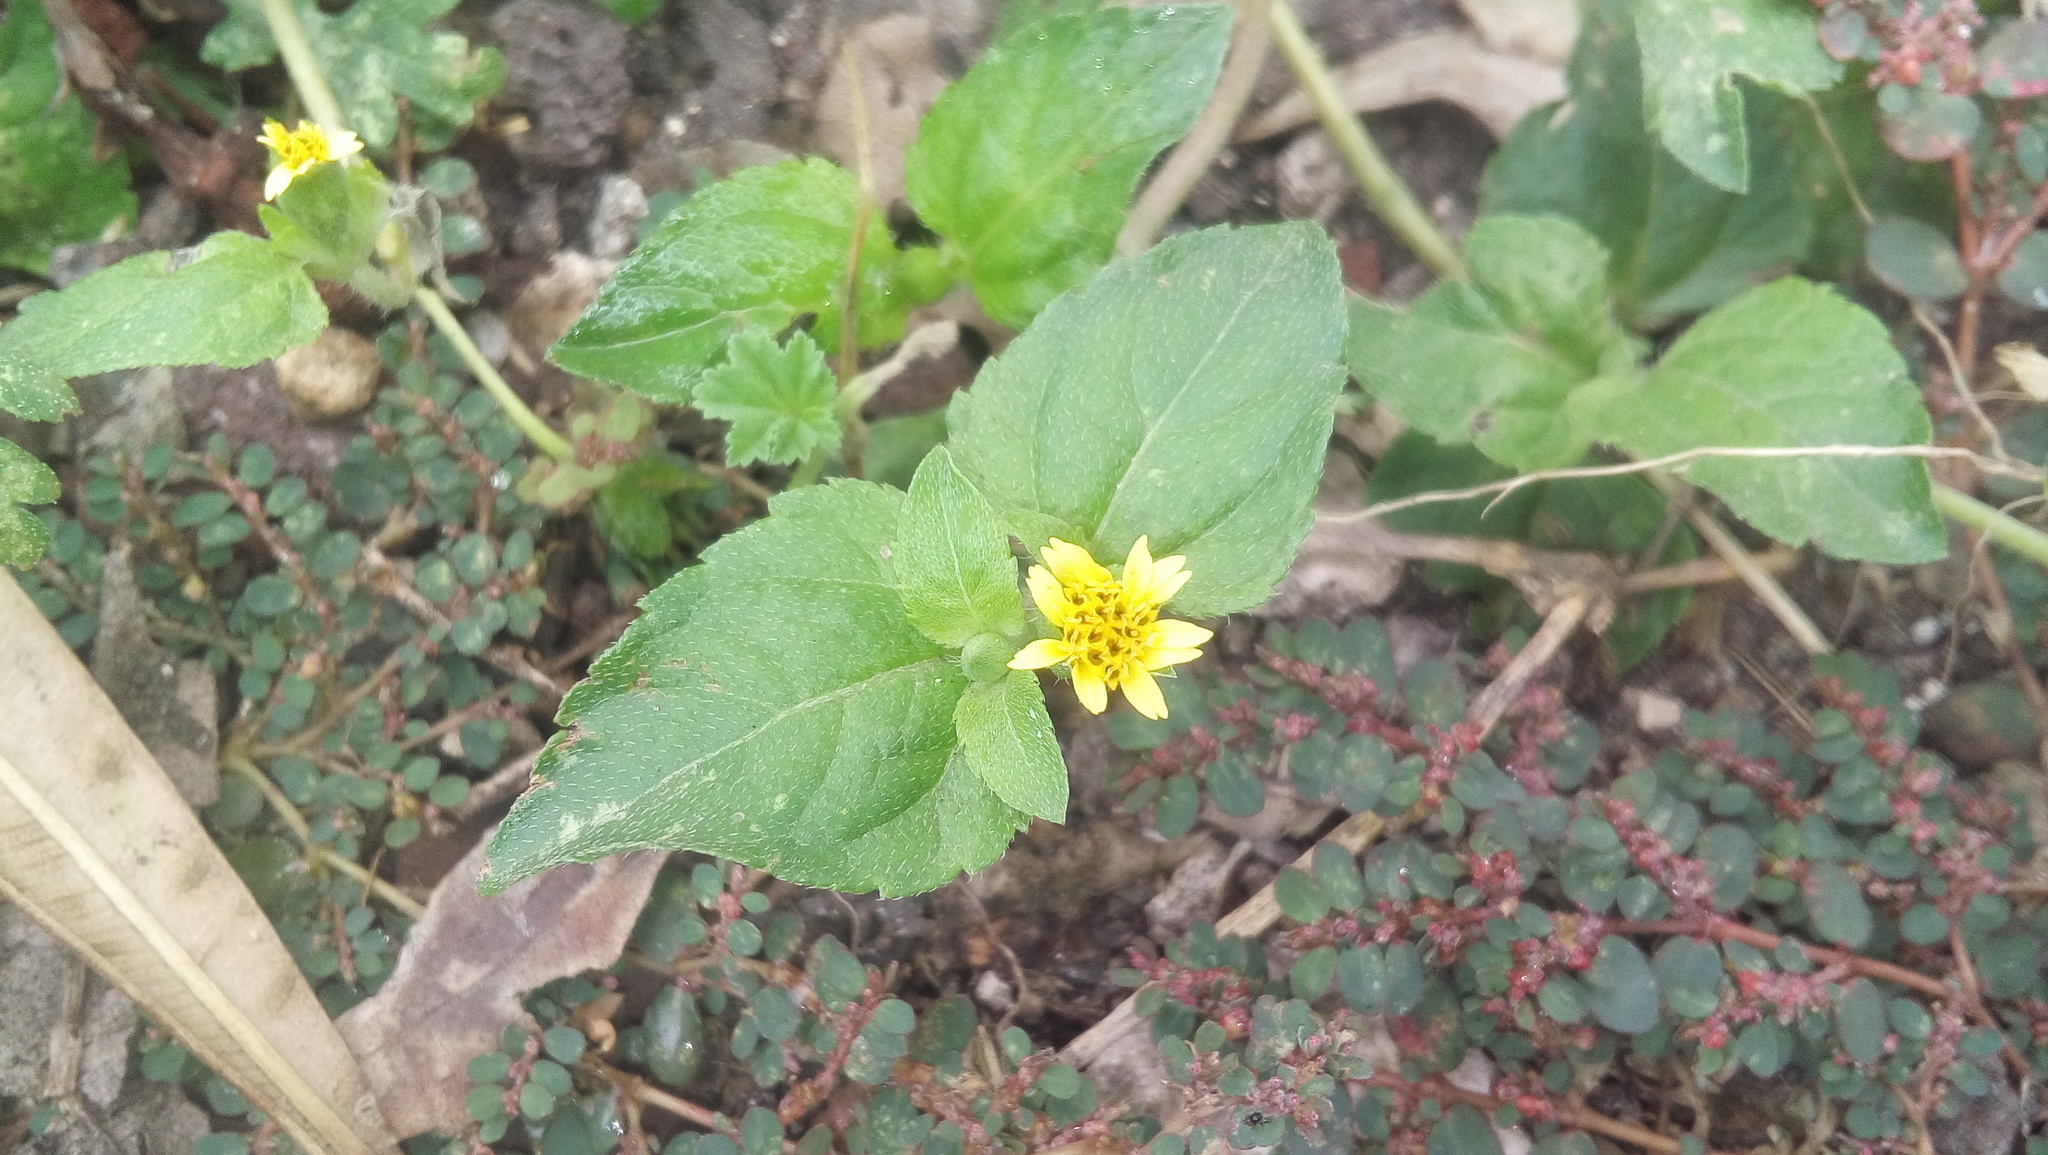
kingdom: Plantae
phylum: Tracheophyta
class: Magnoliopsida
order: Asterales
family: Asteraceae
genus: Calyptocarpus
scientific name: Calyptocarpus vialis
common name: Straggler daisy
